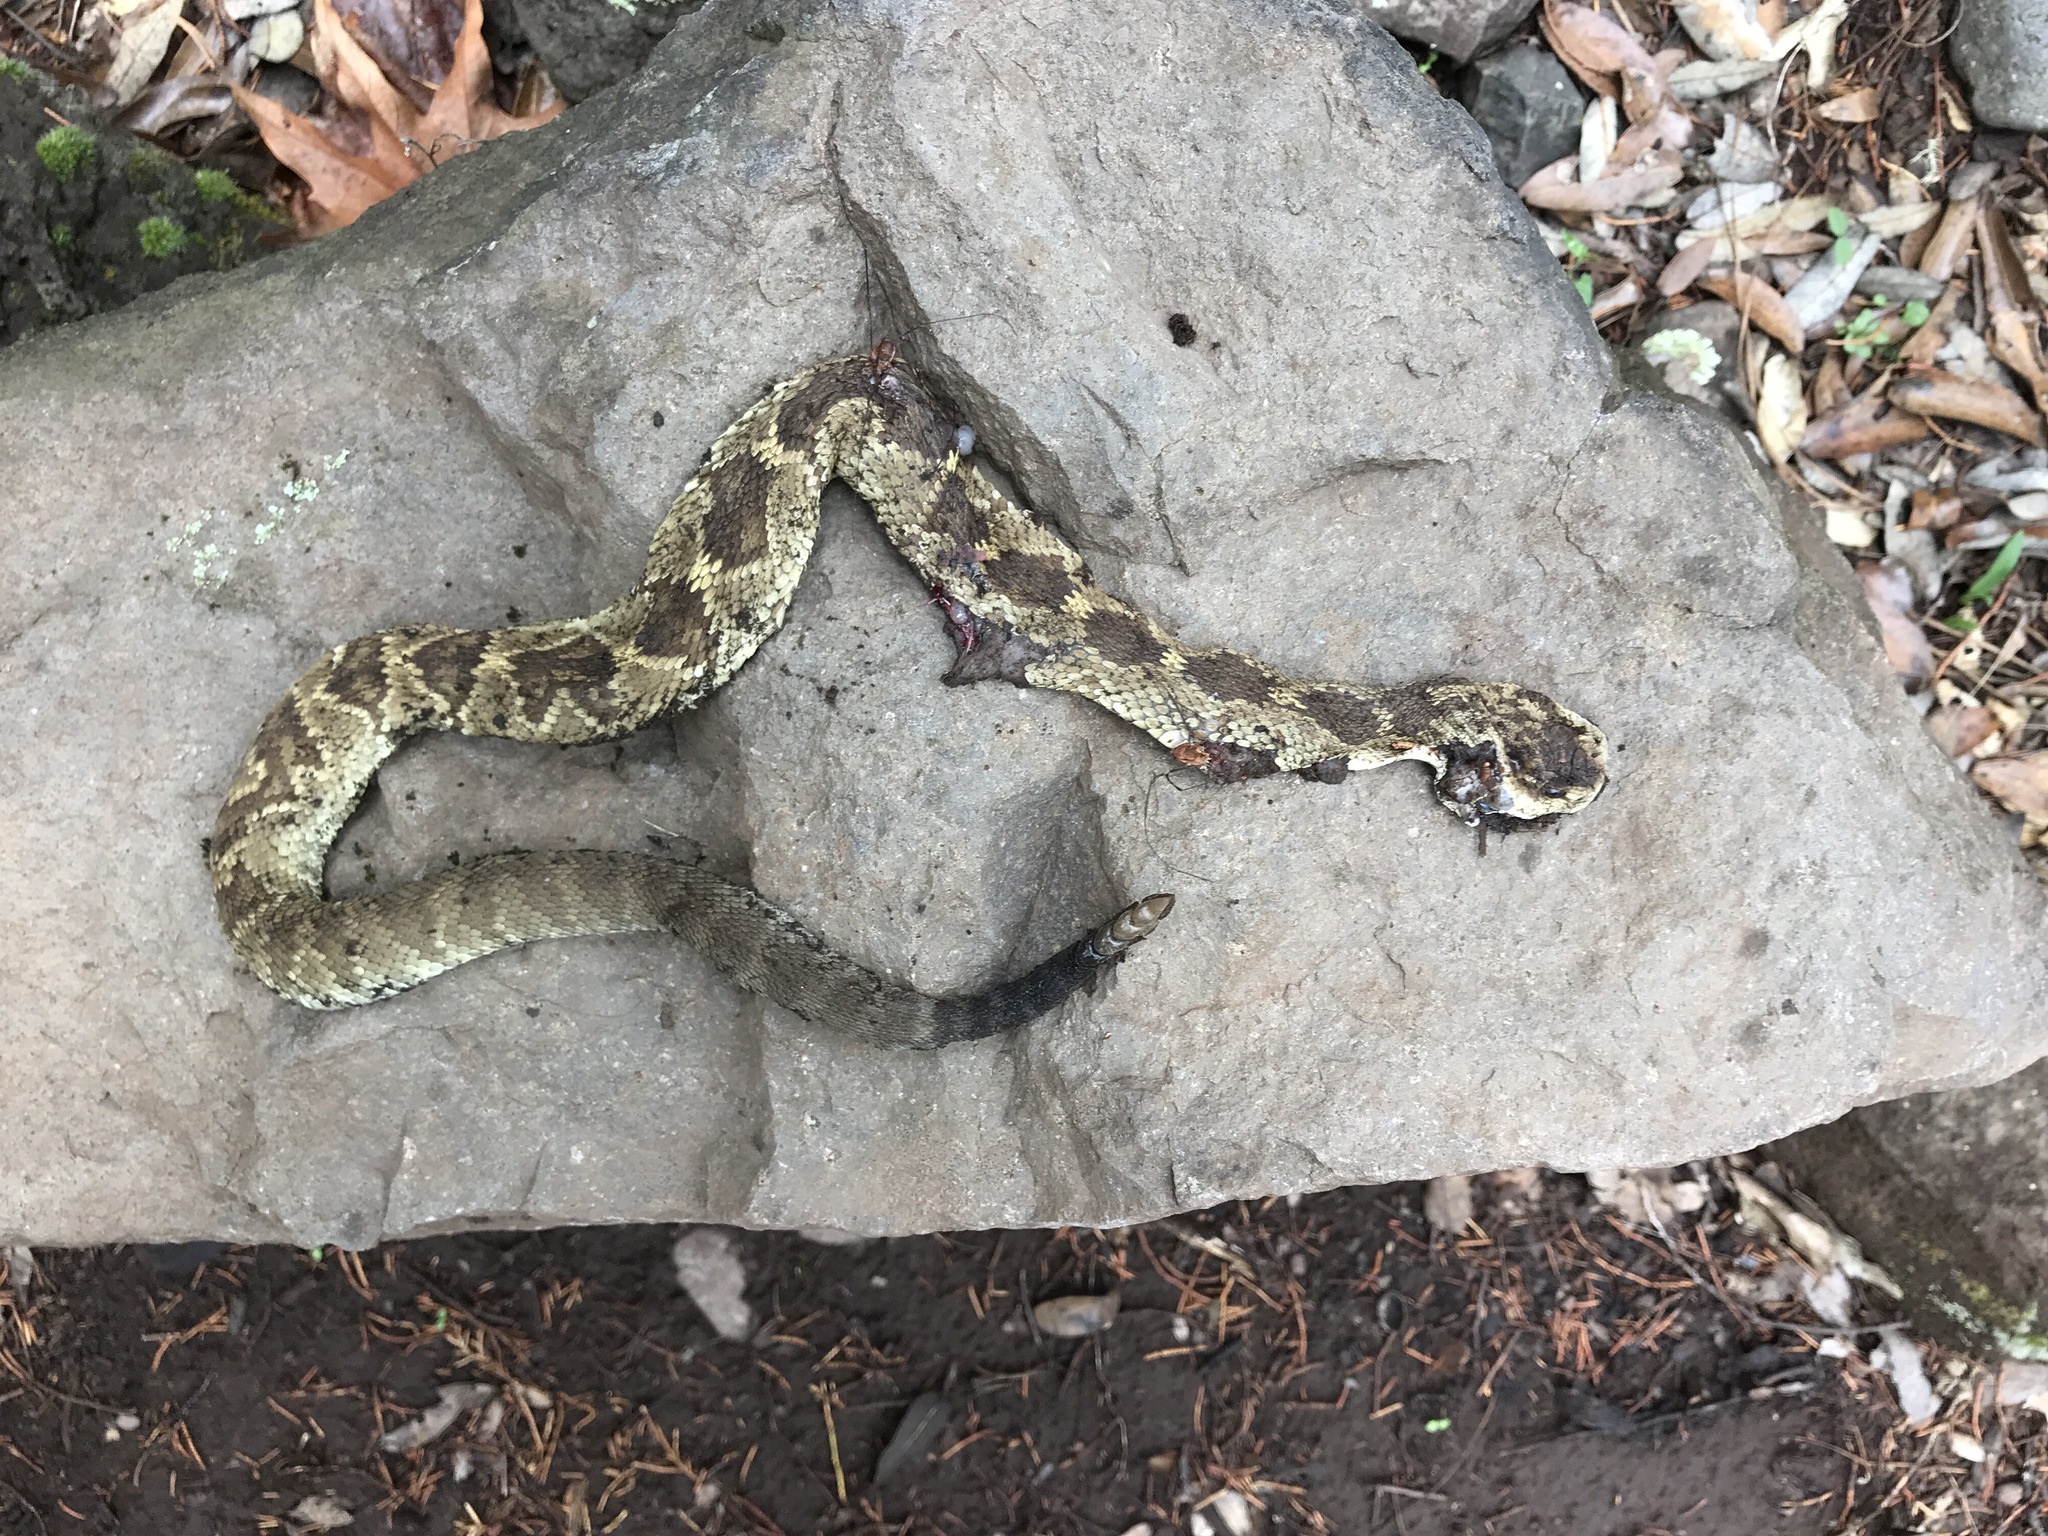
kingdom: Animalia
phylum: Chordata
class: Squamata
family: Viperidae
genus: Crotalus
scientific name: Crotalus molossus
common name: Black tailed rattlesnake
